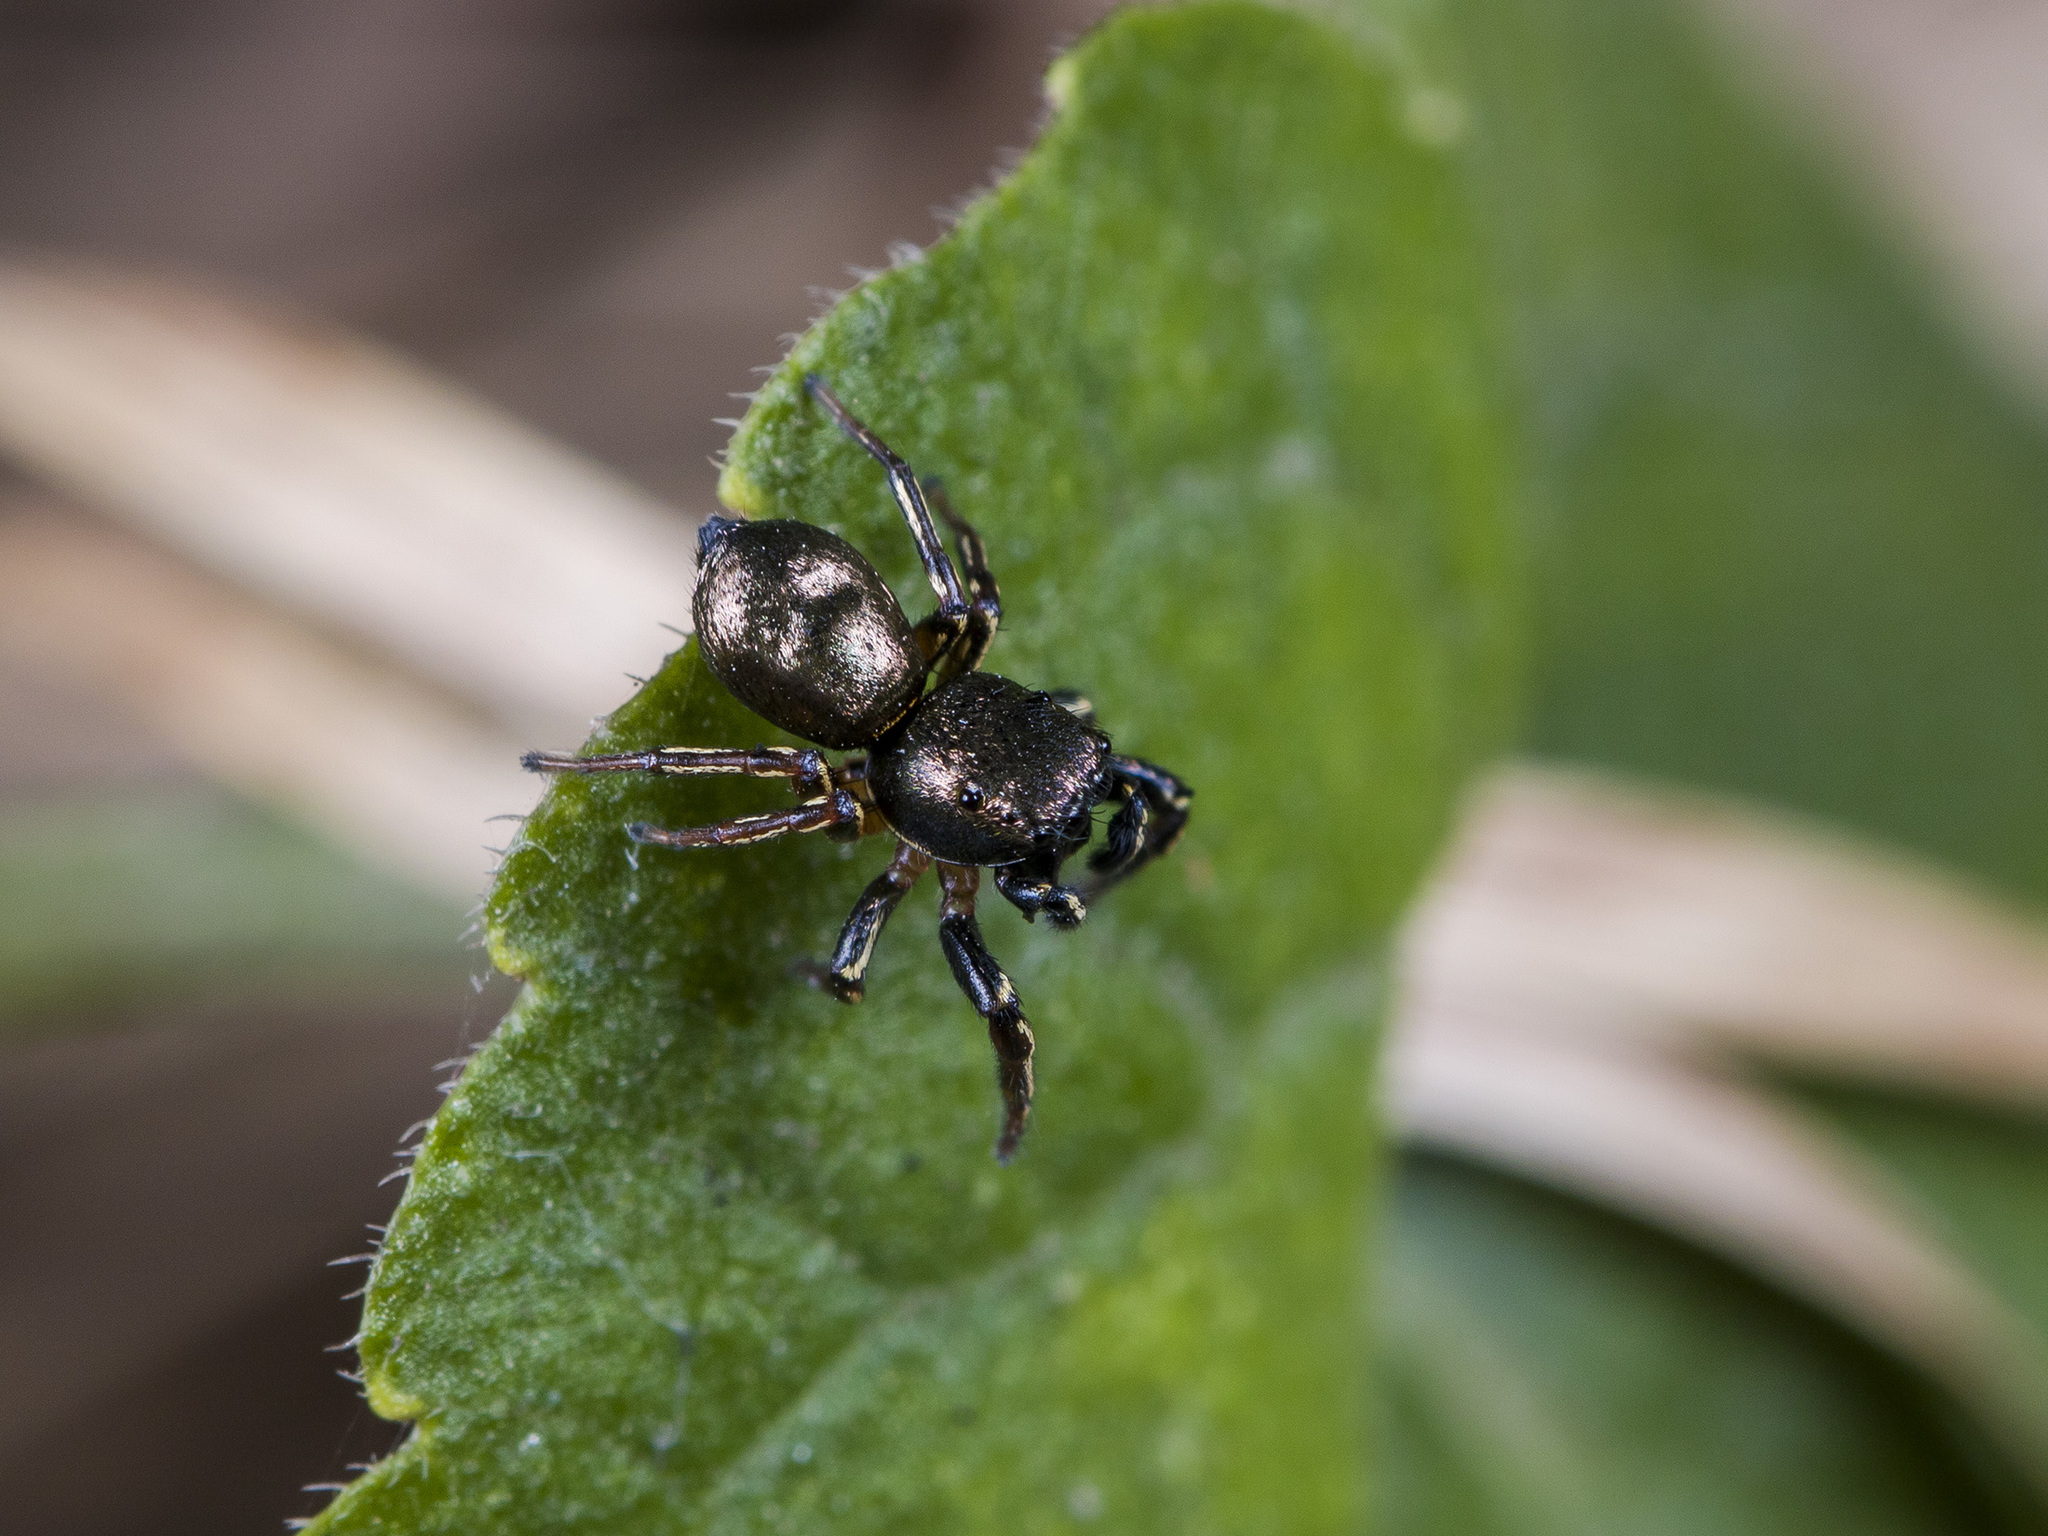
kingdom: Animalia
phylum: Arthropoda
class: Arachnida
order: Araneae
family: Salticidae
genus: Heliophanus
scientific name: Heliophanus auratus
